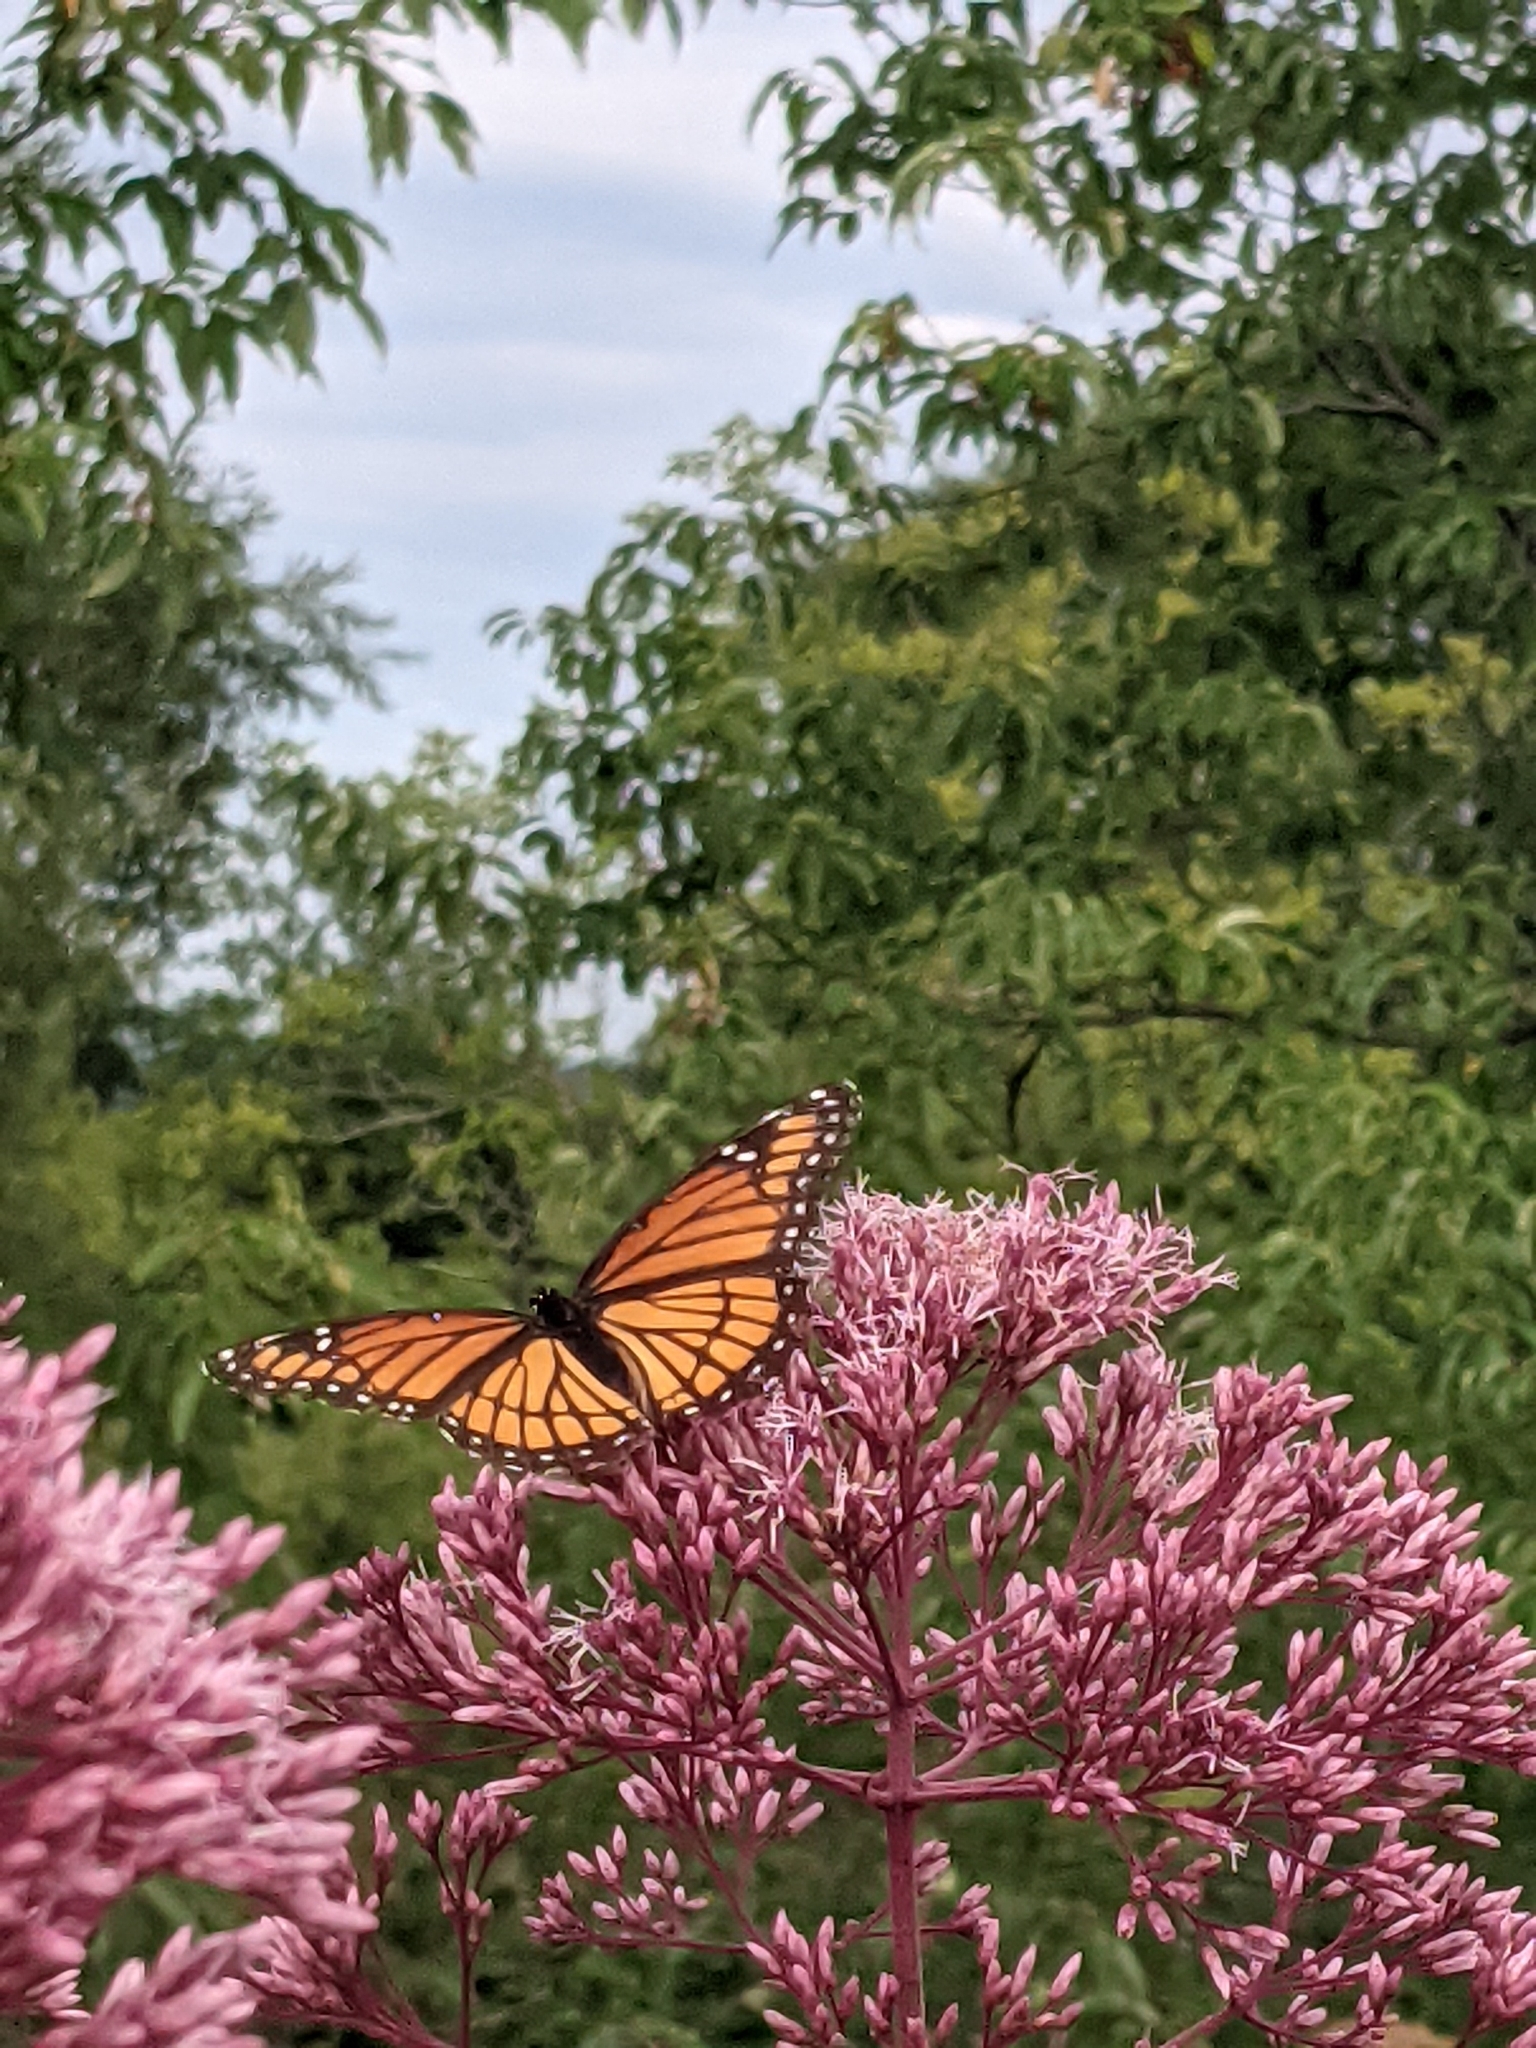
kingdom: Animalia
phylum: Arthropoda
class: Insecta
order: Lepidoptera
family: Nymphalidae
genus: Limenitis
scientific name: Limenitis archippus
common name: Viceroy
